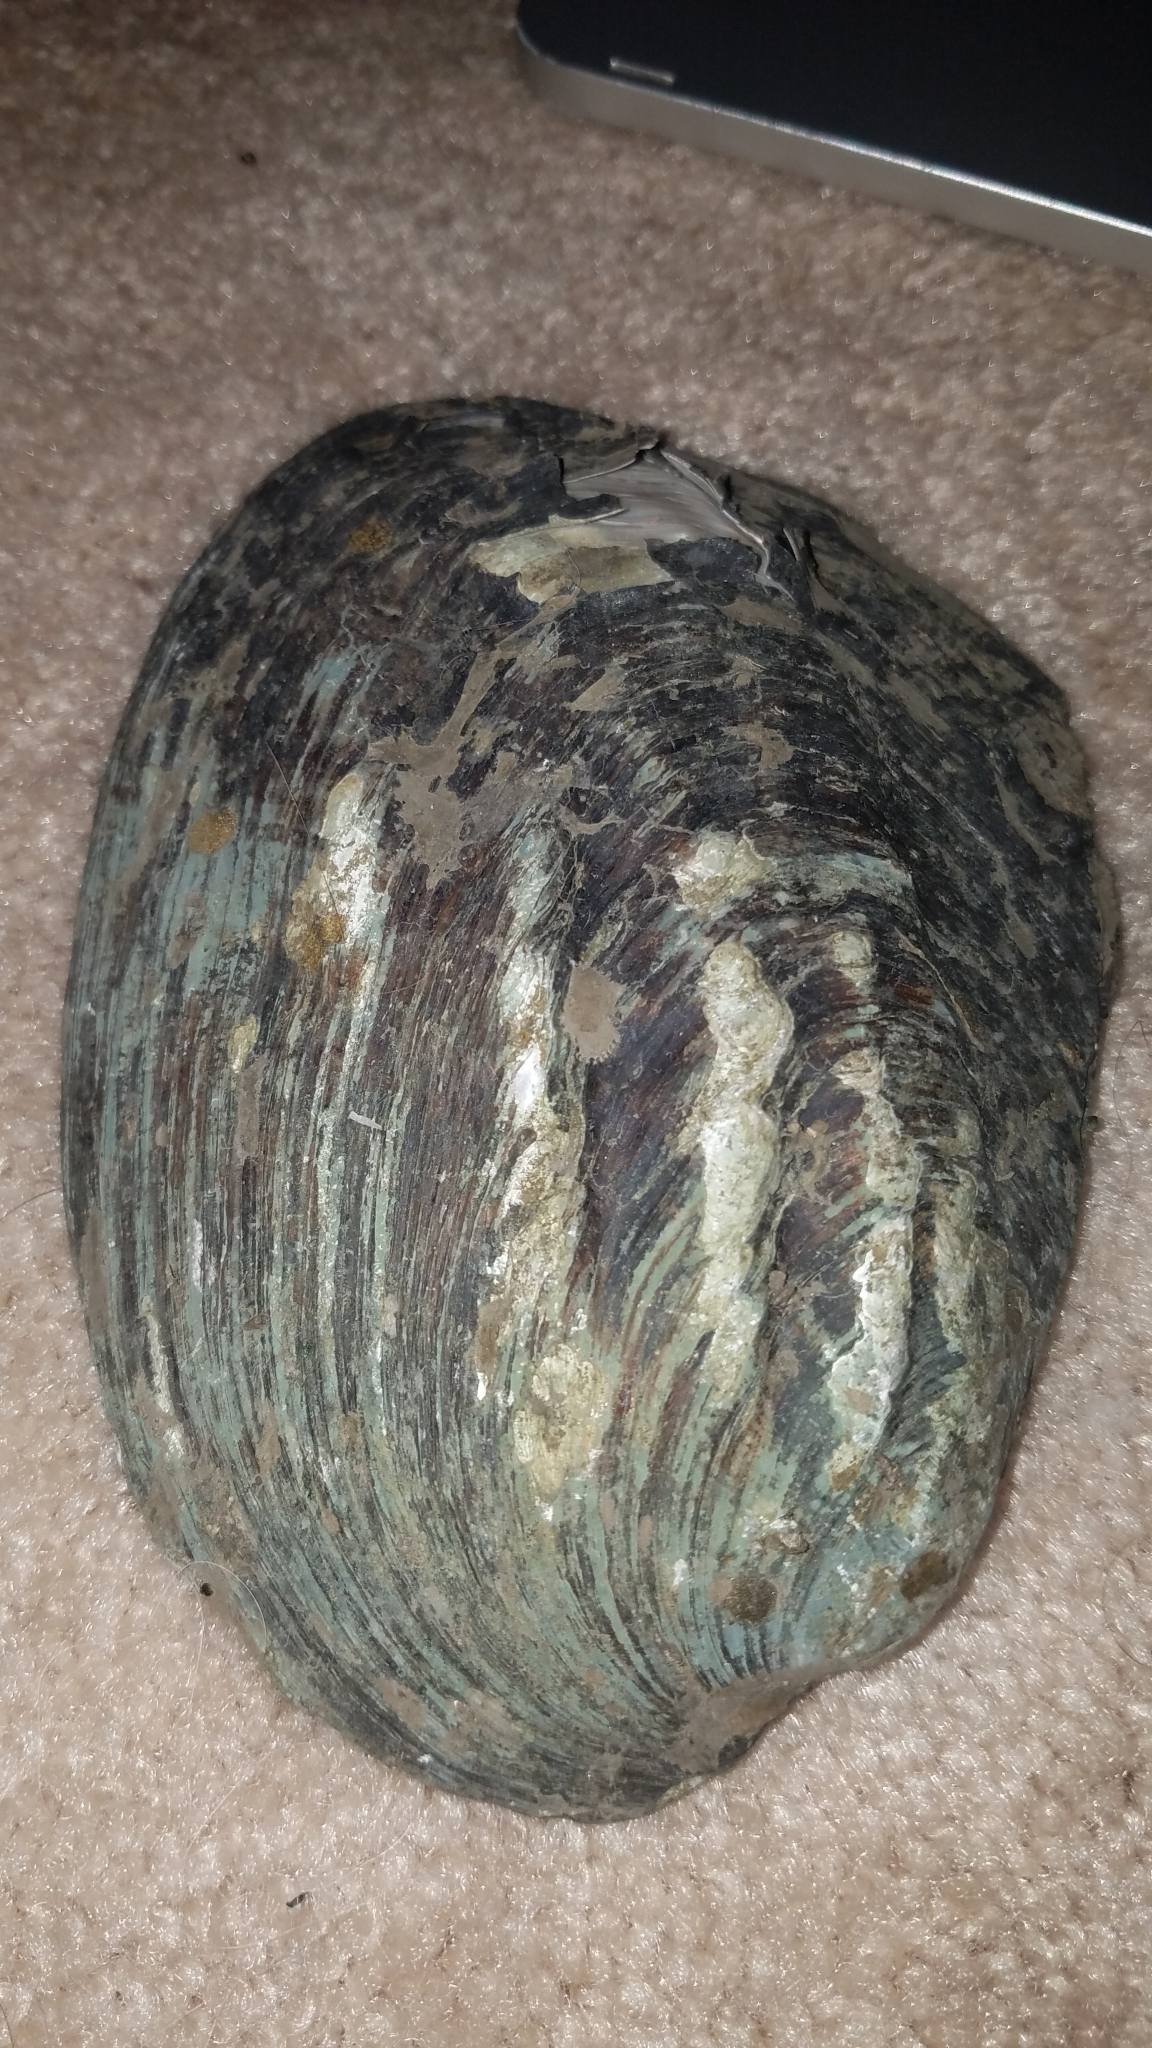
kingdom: Animalia
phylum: Mollusca
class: Bivalvia
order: Unionida
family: Unionidae
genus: Amblema
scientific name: Amblema plicata
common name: Threeridge
